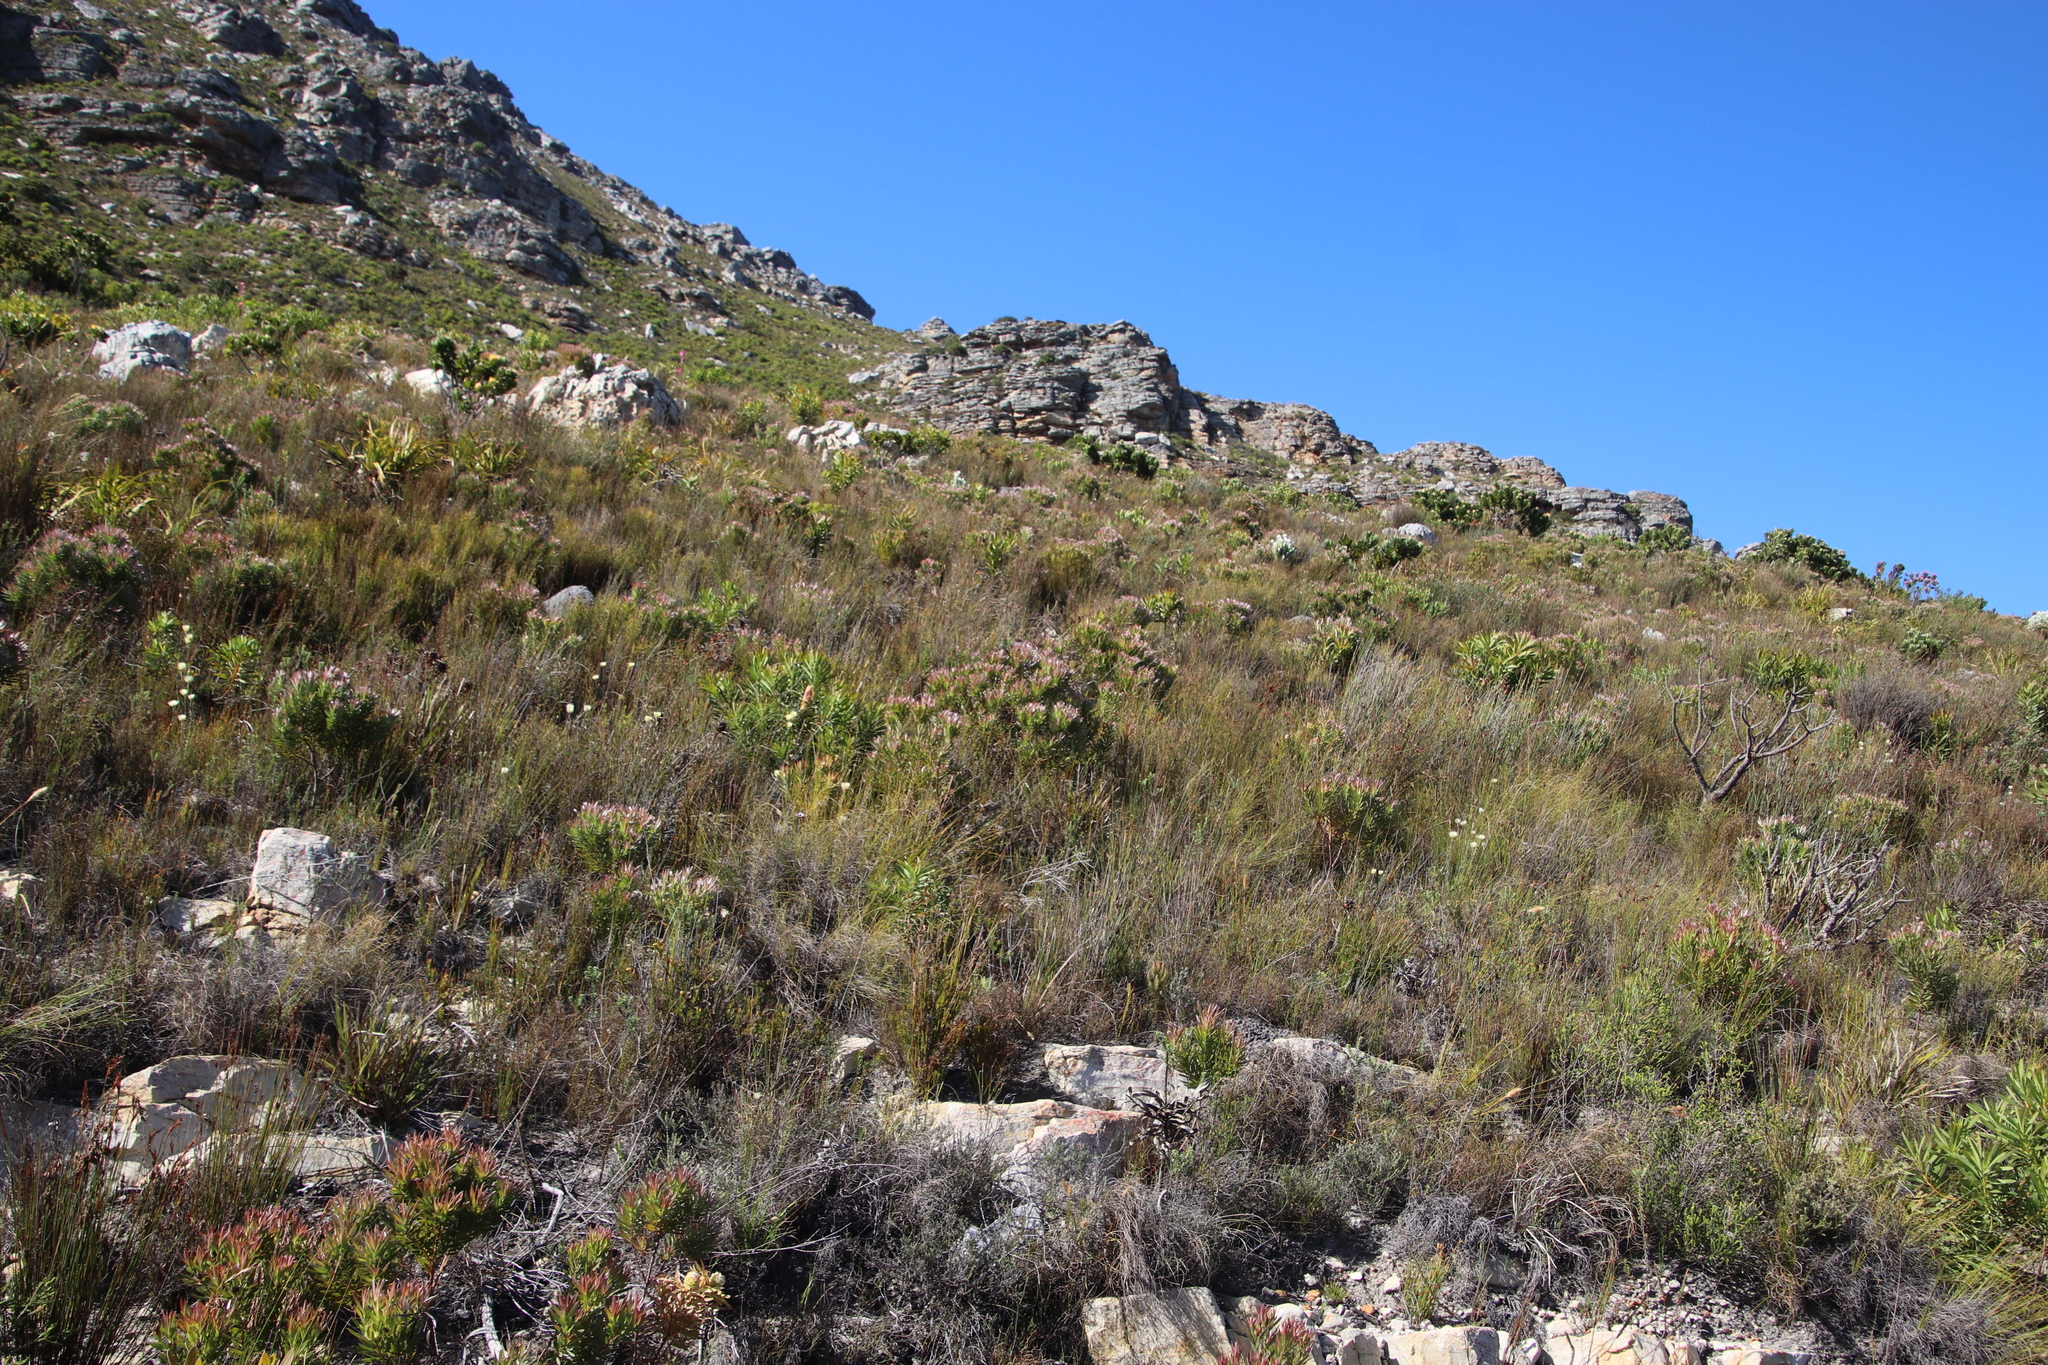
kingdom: Plantae
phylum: Tracheophyta
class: Magnoliopsida
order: Proteales
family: Proteaceae
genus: Leucadendron
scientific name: Leucadendron xanthoconus
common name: Sickle-leaf conebush
